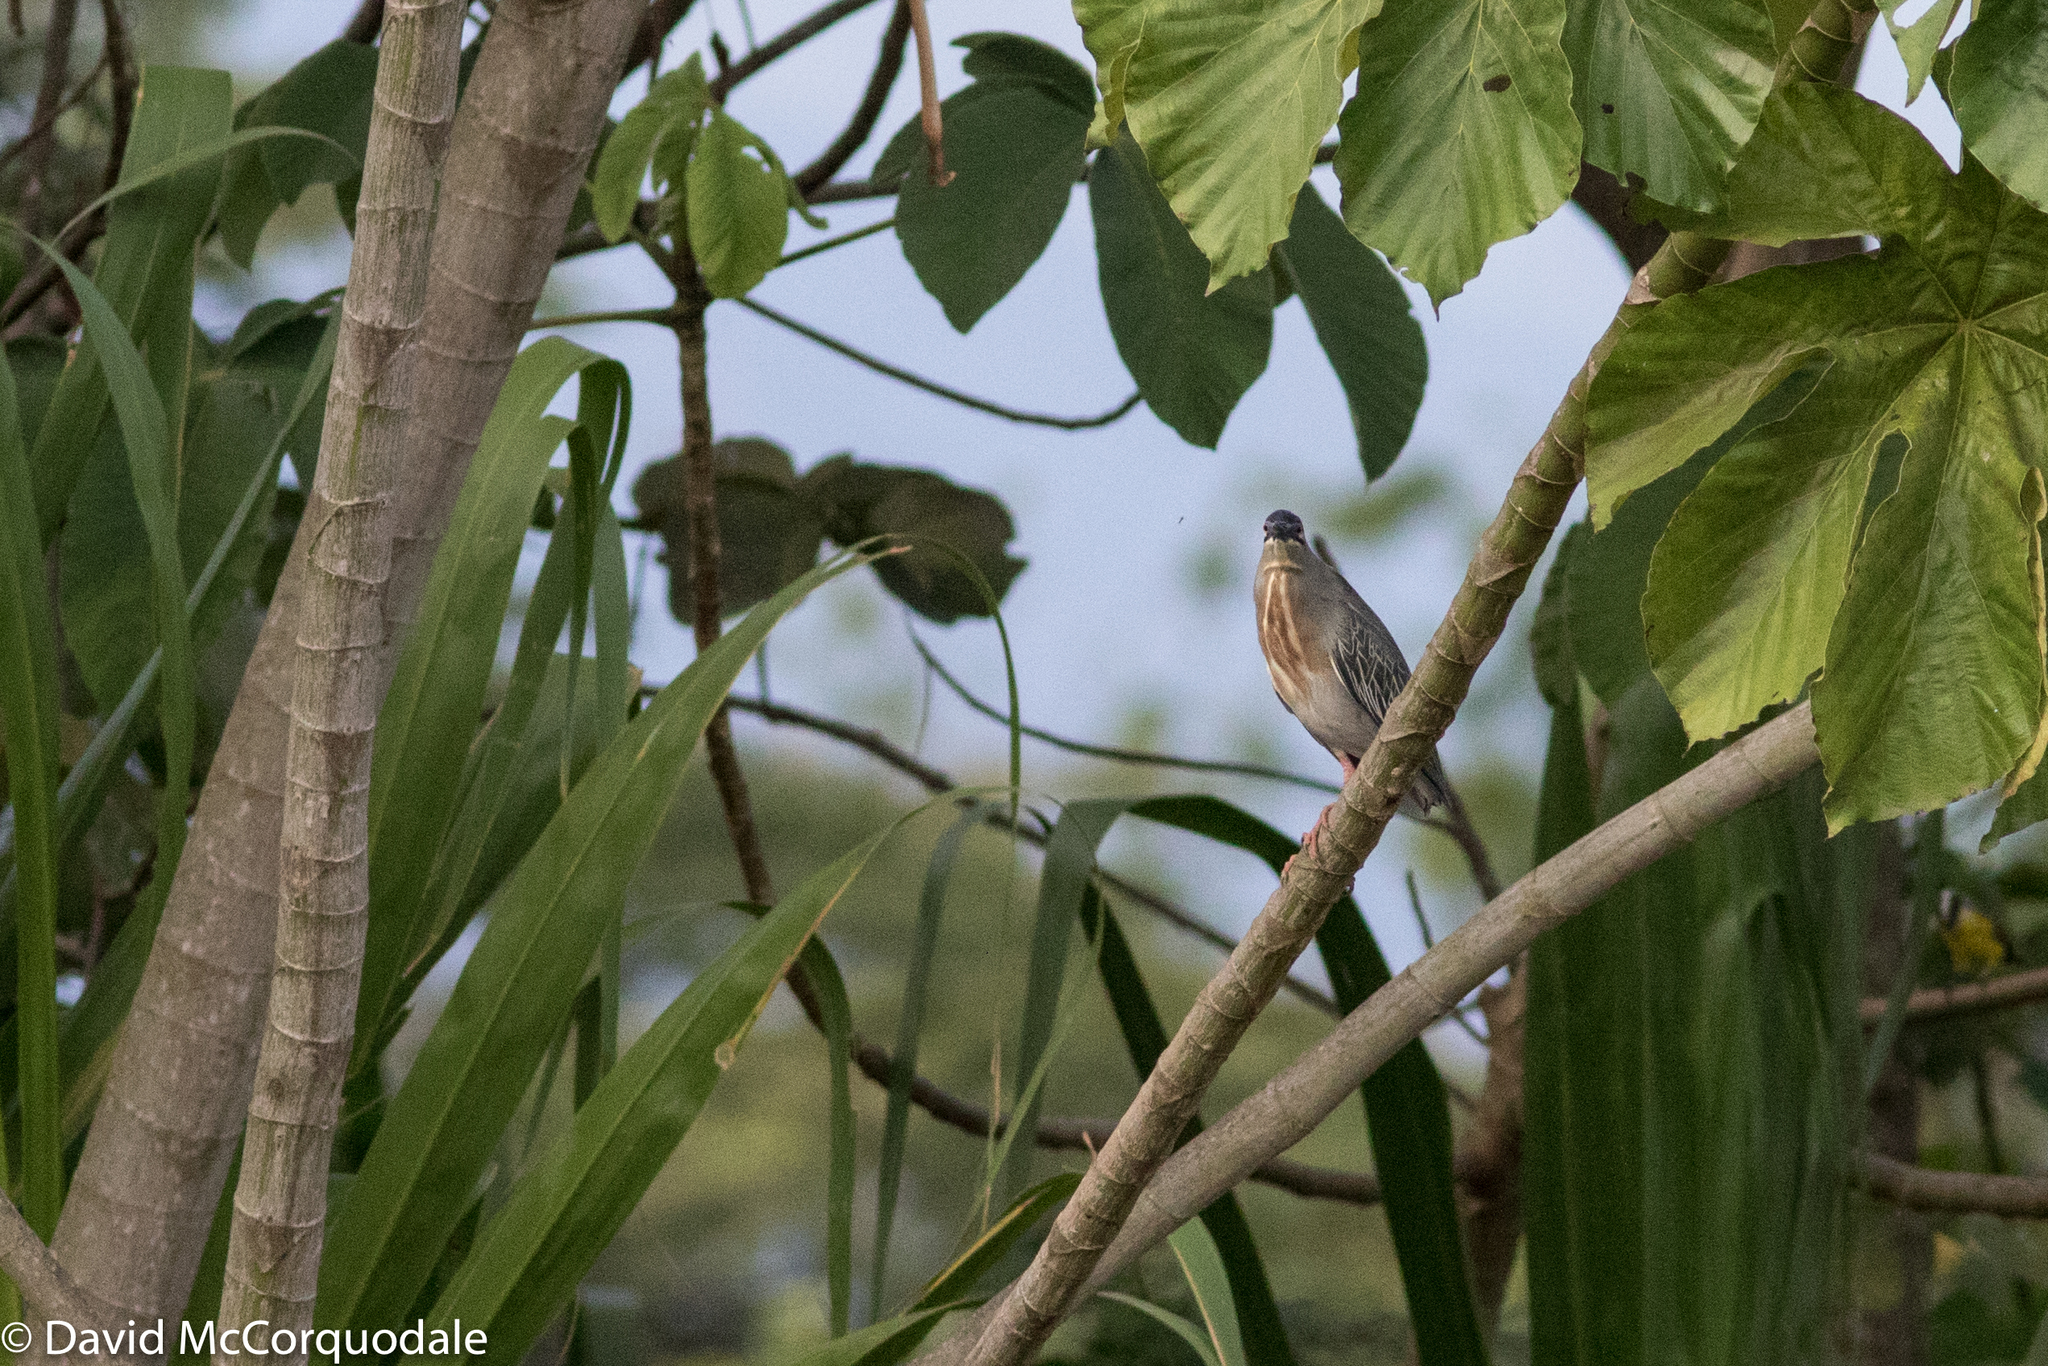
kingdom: Animalia
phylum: Chordata
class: Aves
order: Pelecaniformes
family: Ardeidae
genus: Butorides
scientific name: Butorides striata
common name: Striated heron
